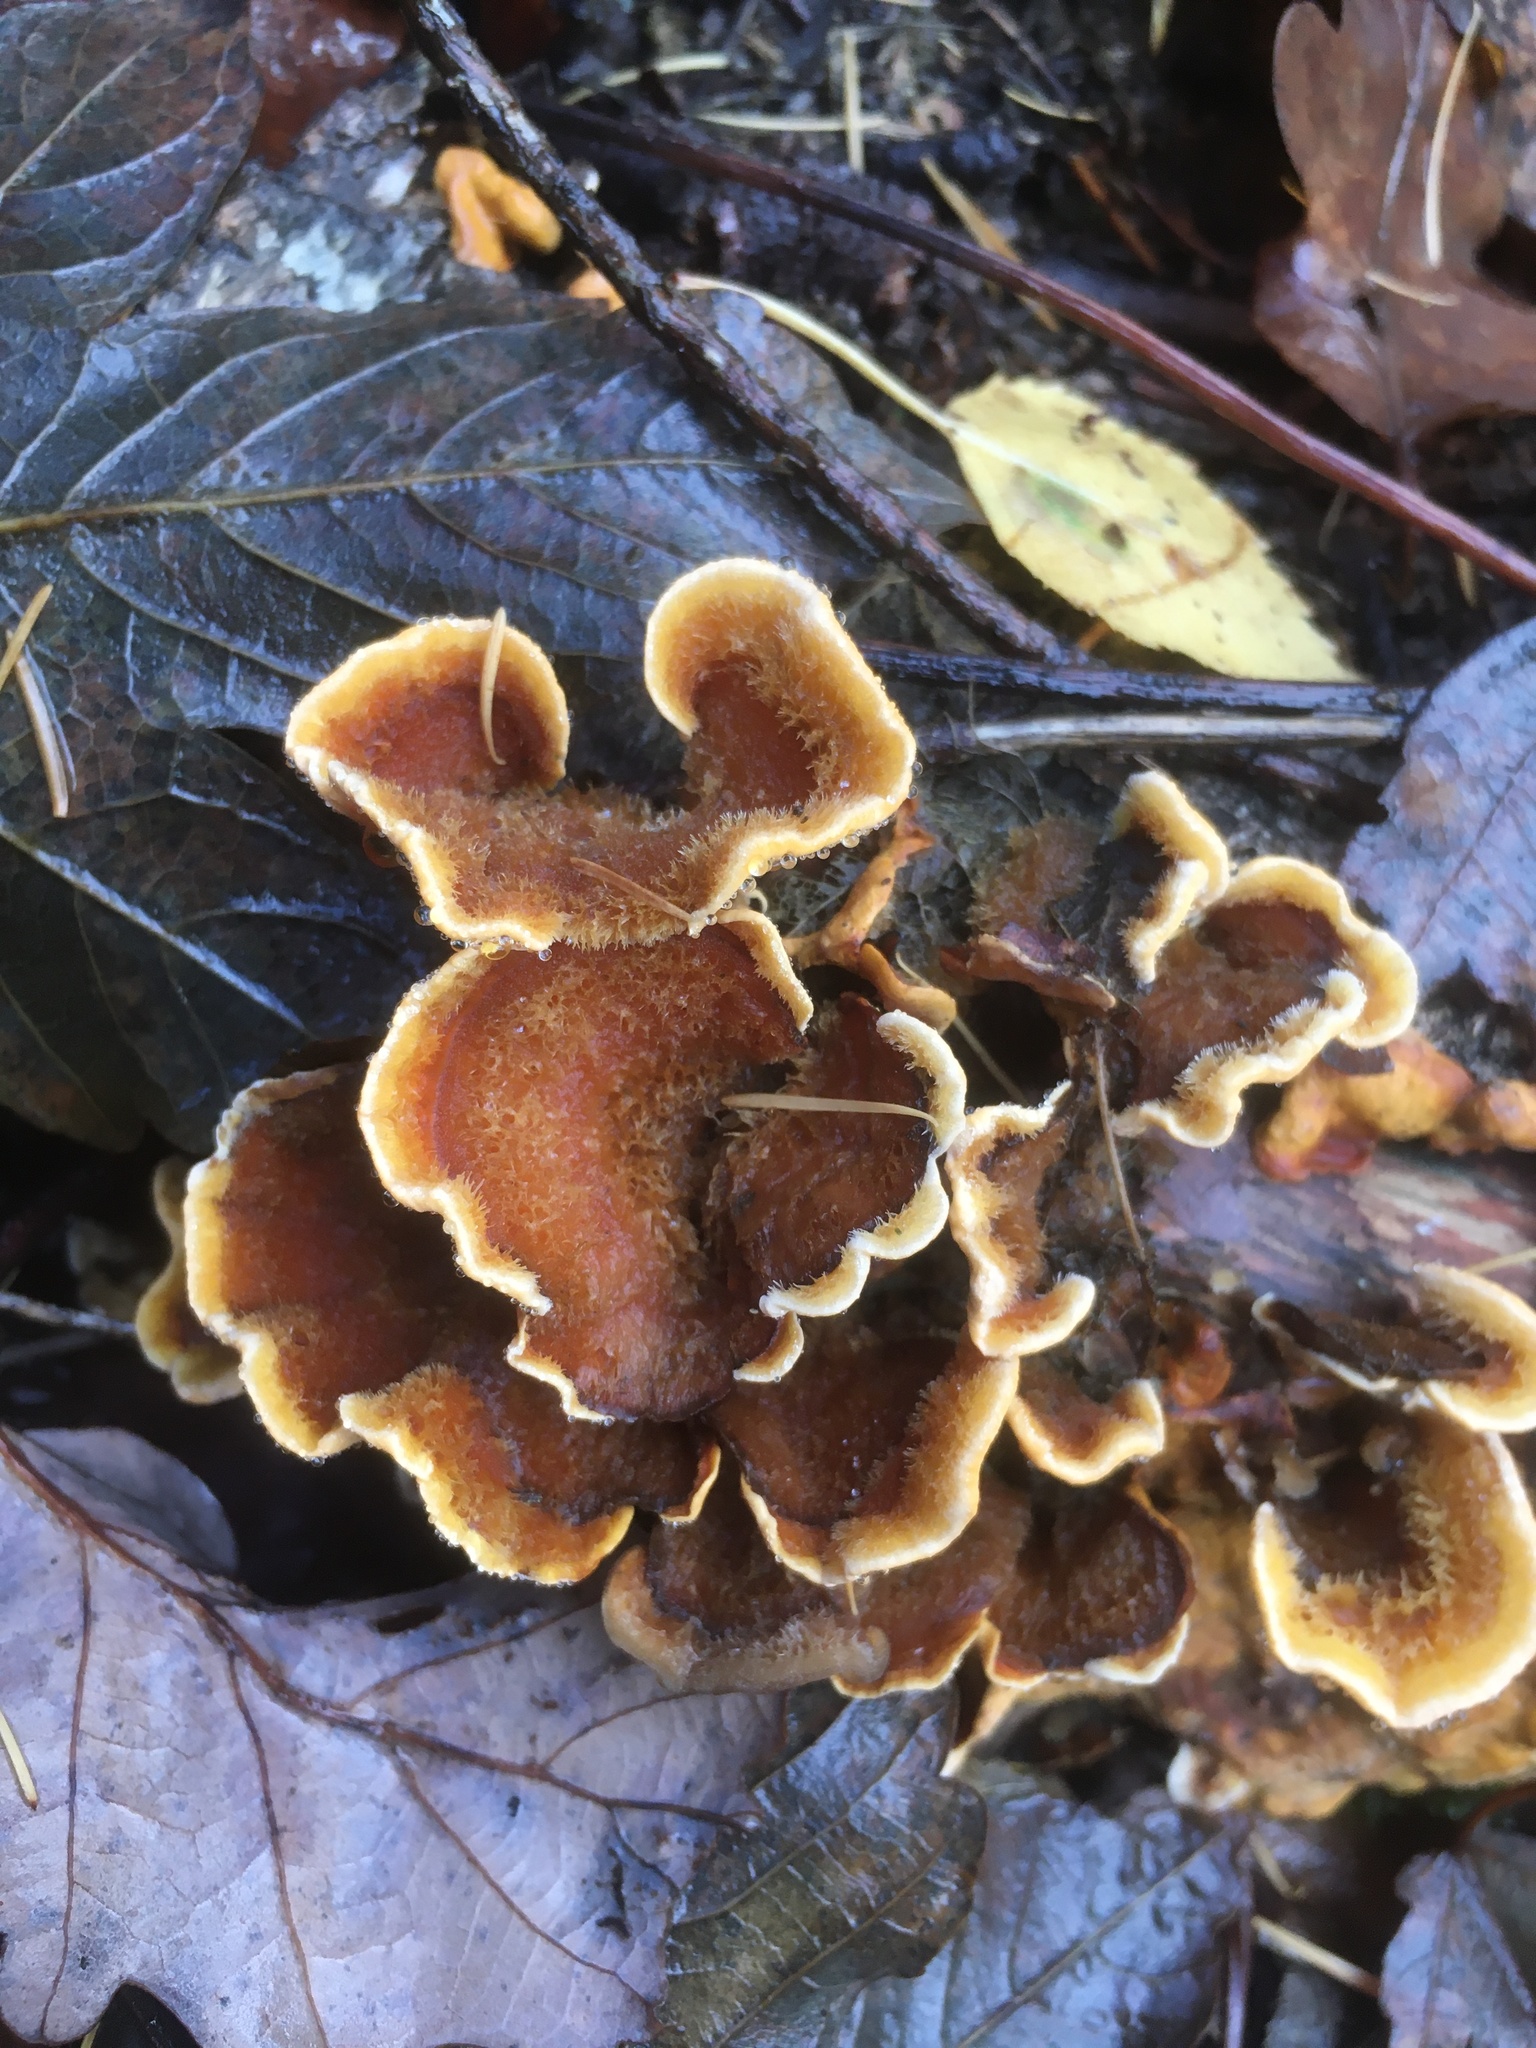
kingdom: Fungi
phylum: Basidiomycota
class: Agaricomycetes
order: Russulales
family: Stereaceae
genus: Stereum
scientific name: Stereum hirsutum
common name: Hairy curtain crust
